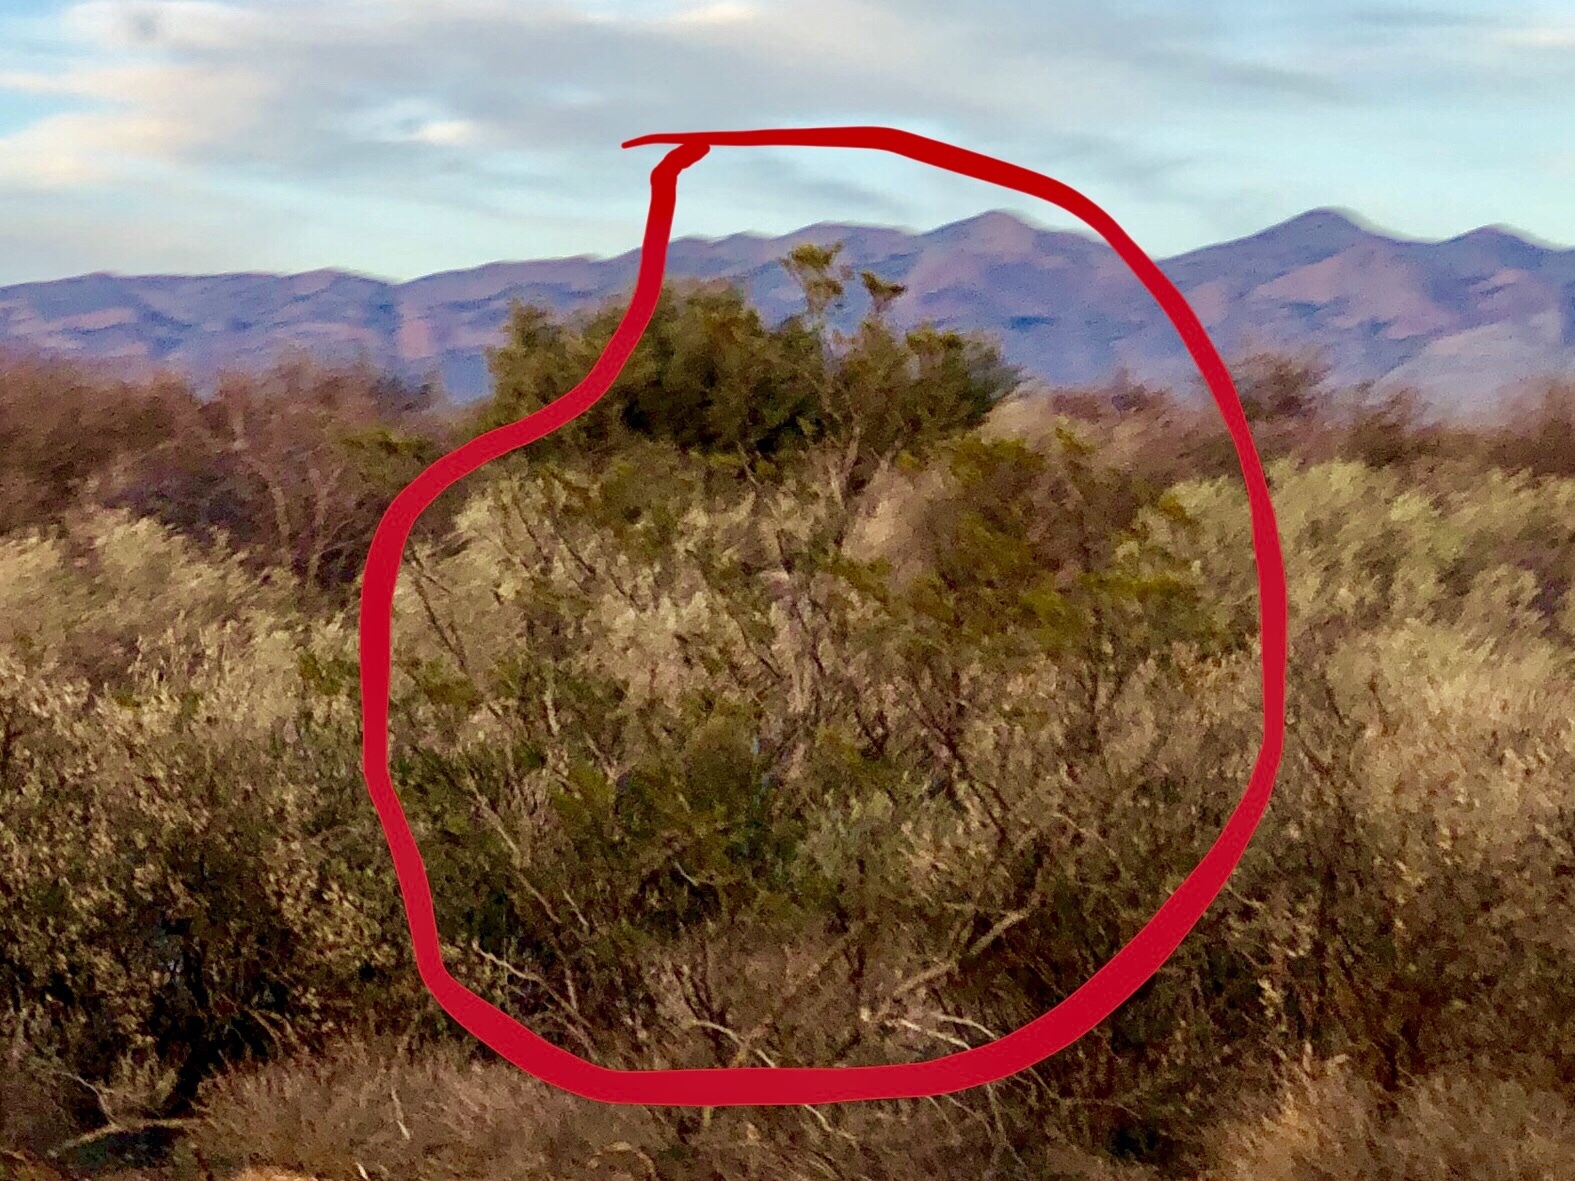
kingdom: Plantae
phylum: Tracheophyta
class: Magnoliopsida
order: Zygophyllales
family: Zygophyllaceae
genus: Larrea
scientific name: Larrea tridentata
